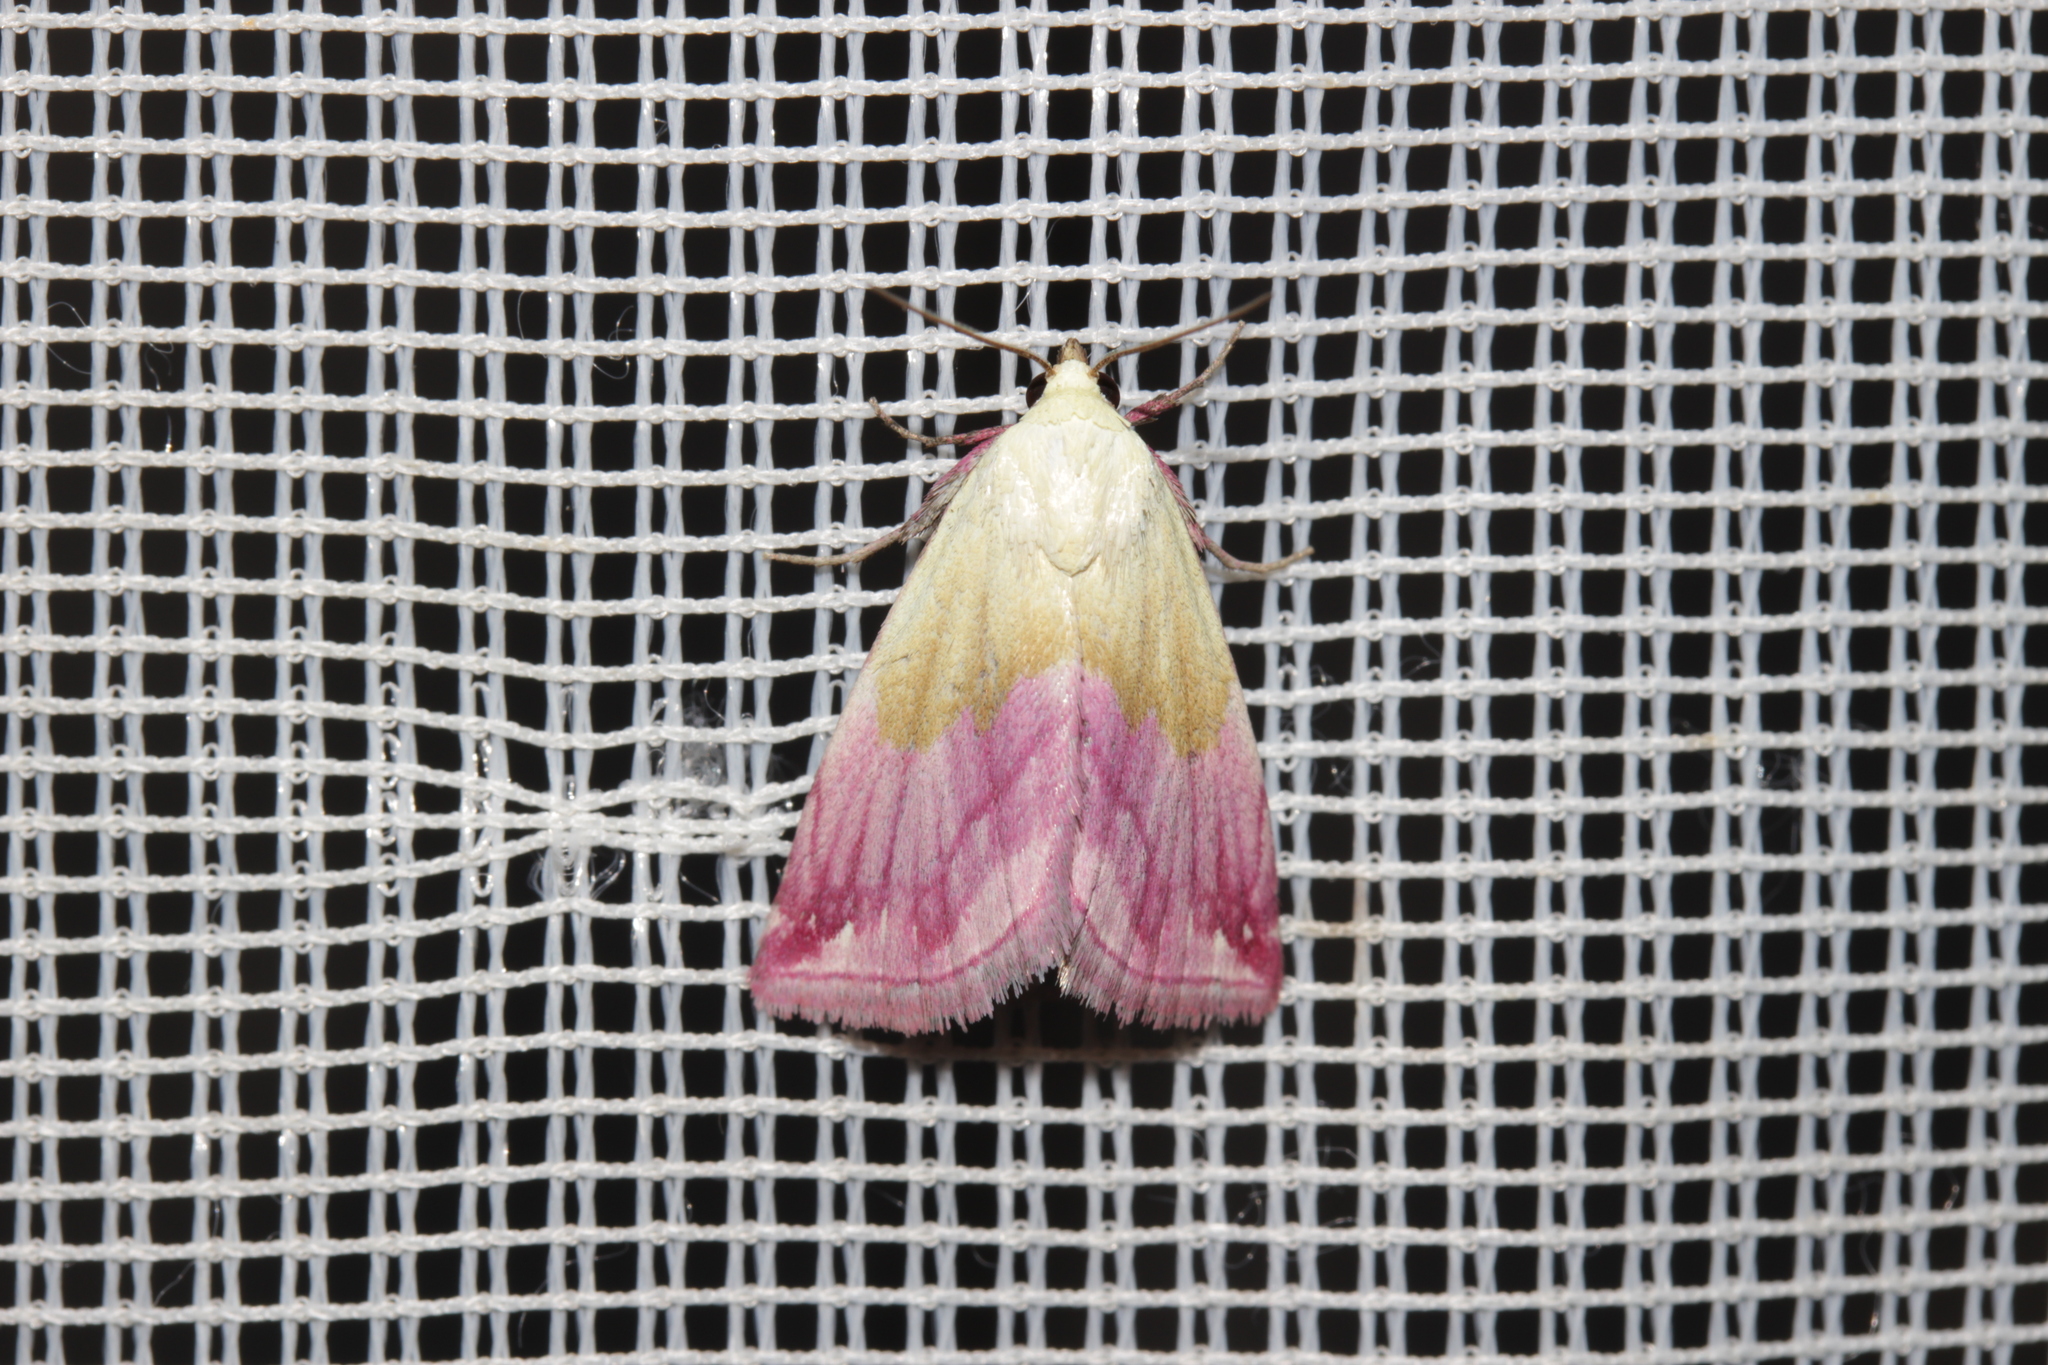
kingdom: Animalia
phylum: Arthropoda
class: Insecta
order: Lepidoptera
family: Noctuidae
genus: Eublemma
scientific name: Eublemma purpurina
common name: Beautiful marbled
